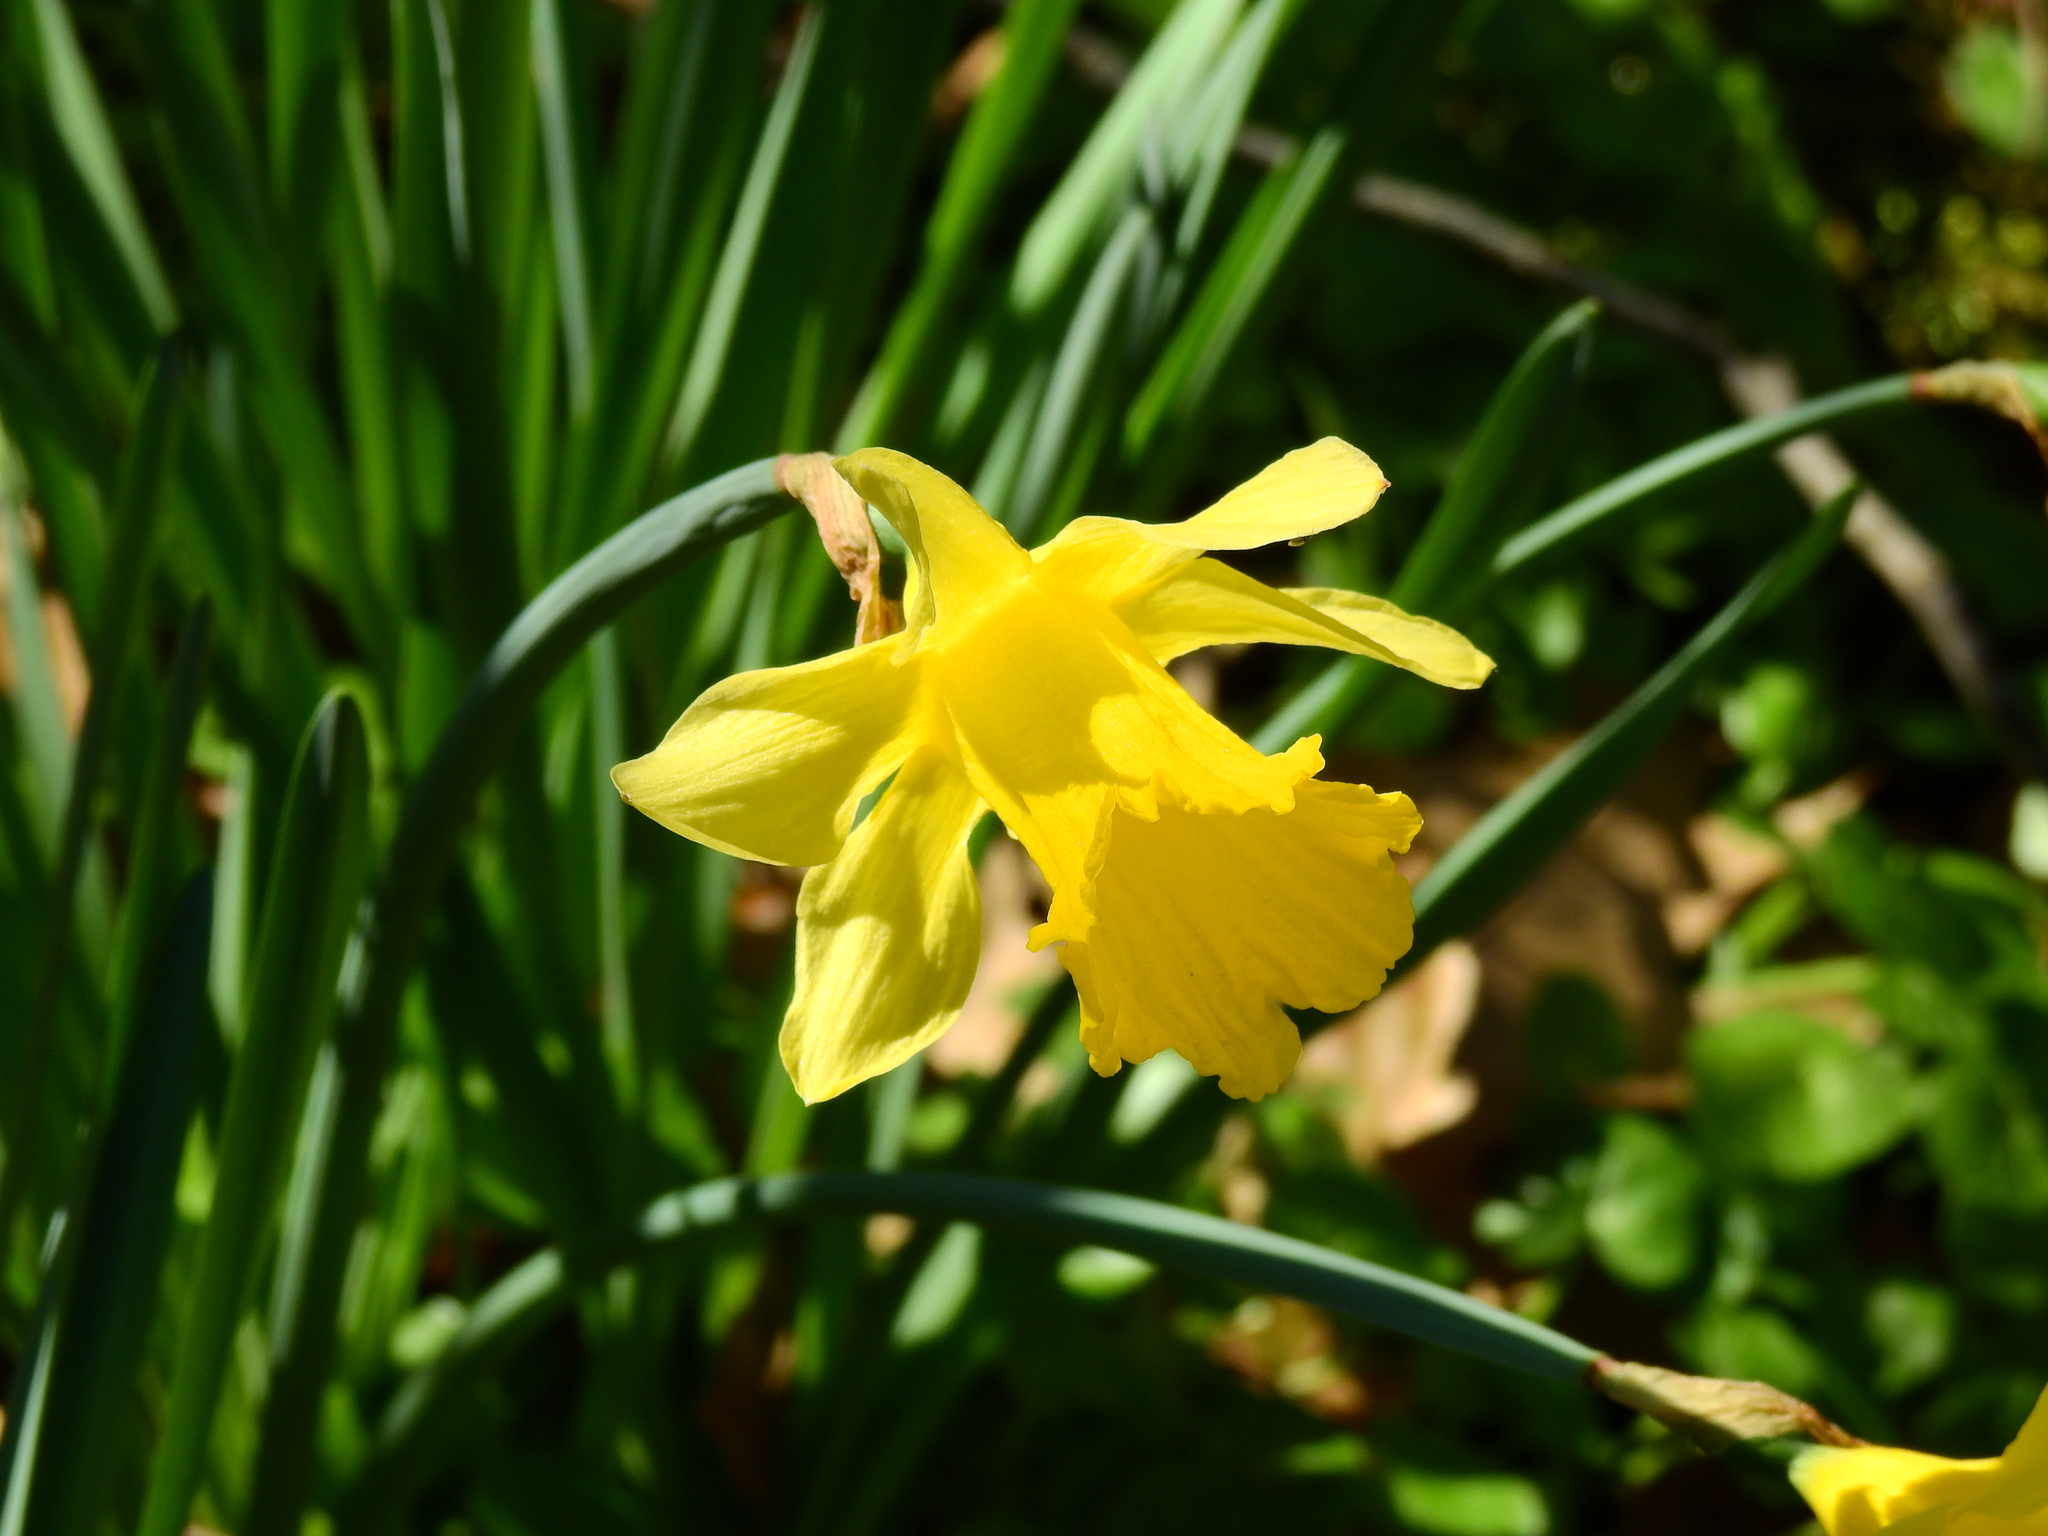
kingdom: Plantae
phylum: Tracheophyta
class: Liliopsida
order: Asparagales
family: Amaryllidaceae
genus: Narcissus
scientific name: Narcissus pseudonarcissus
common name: Daffodil
